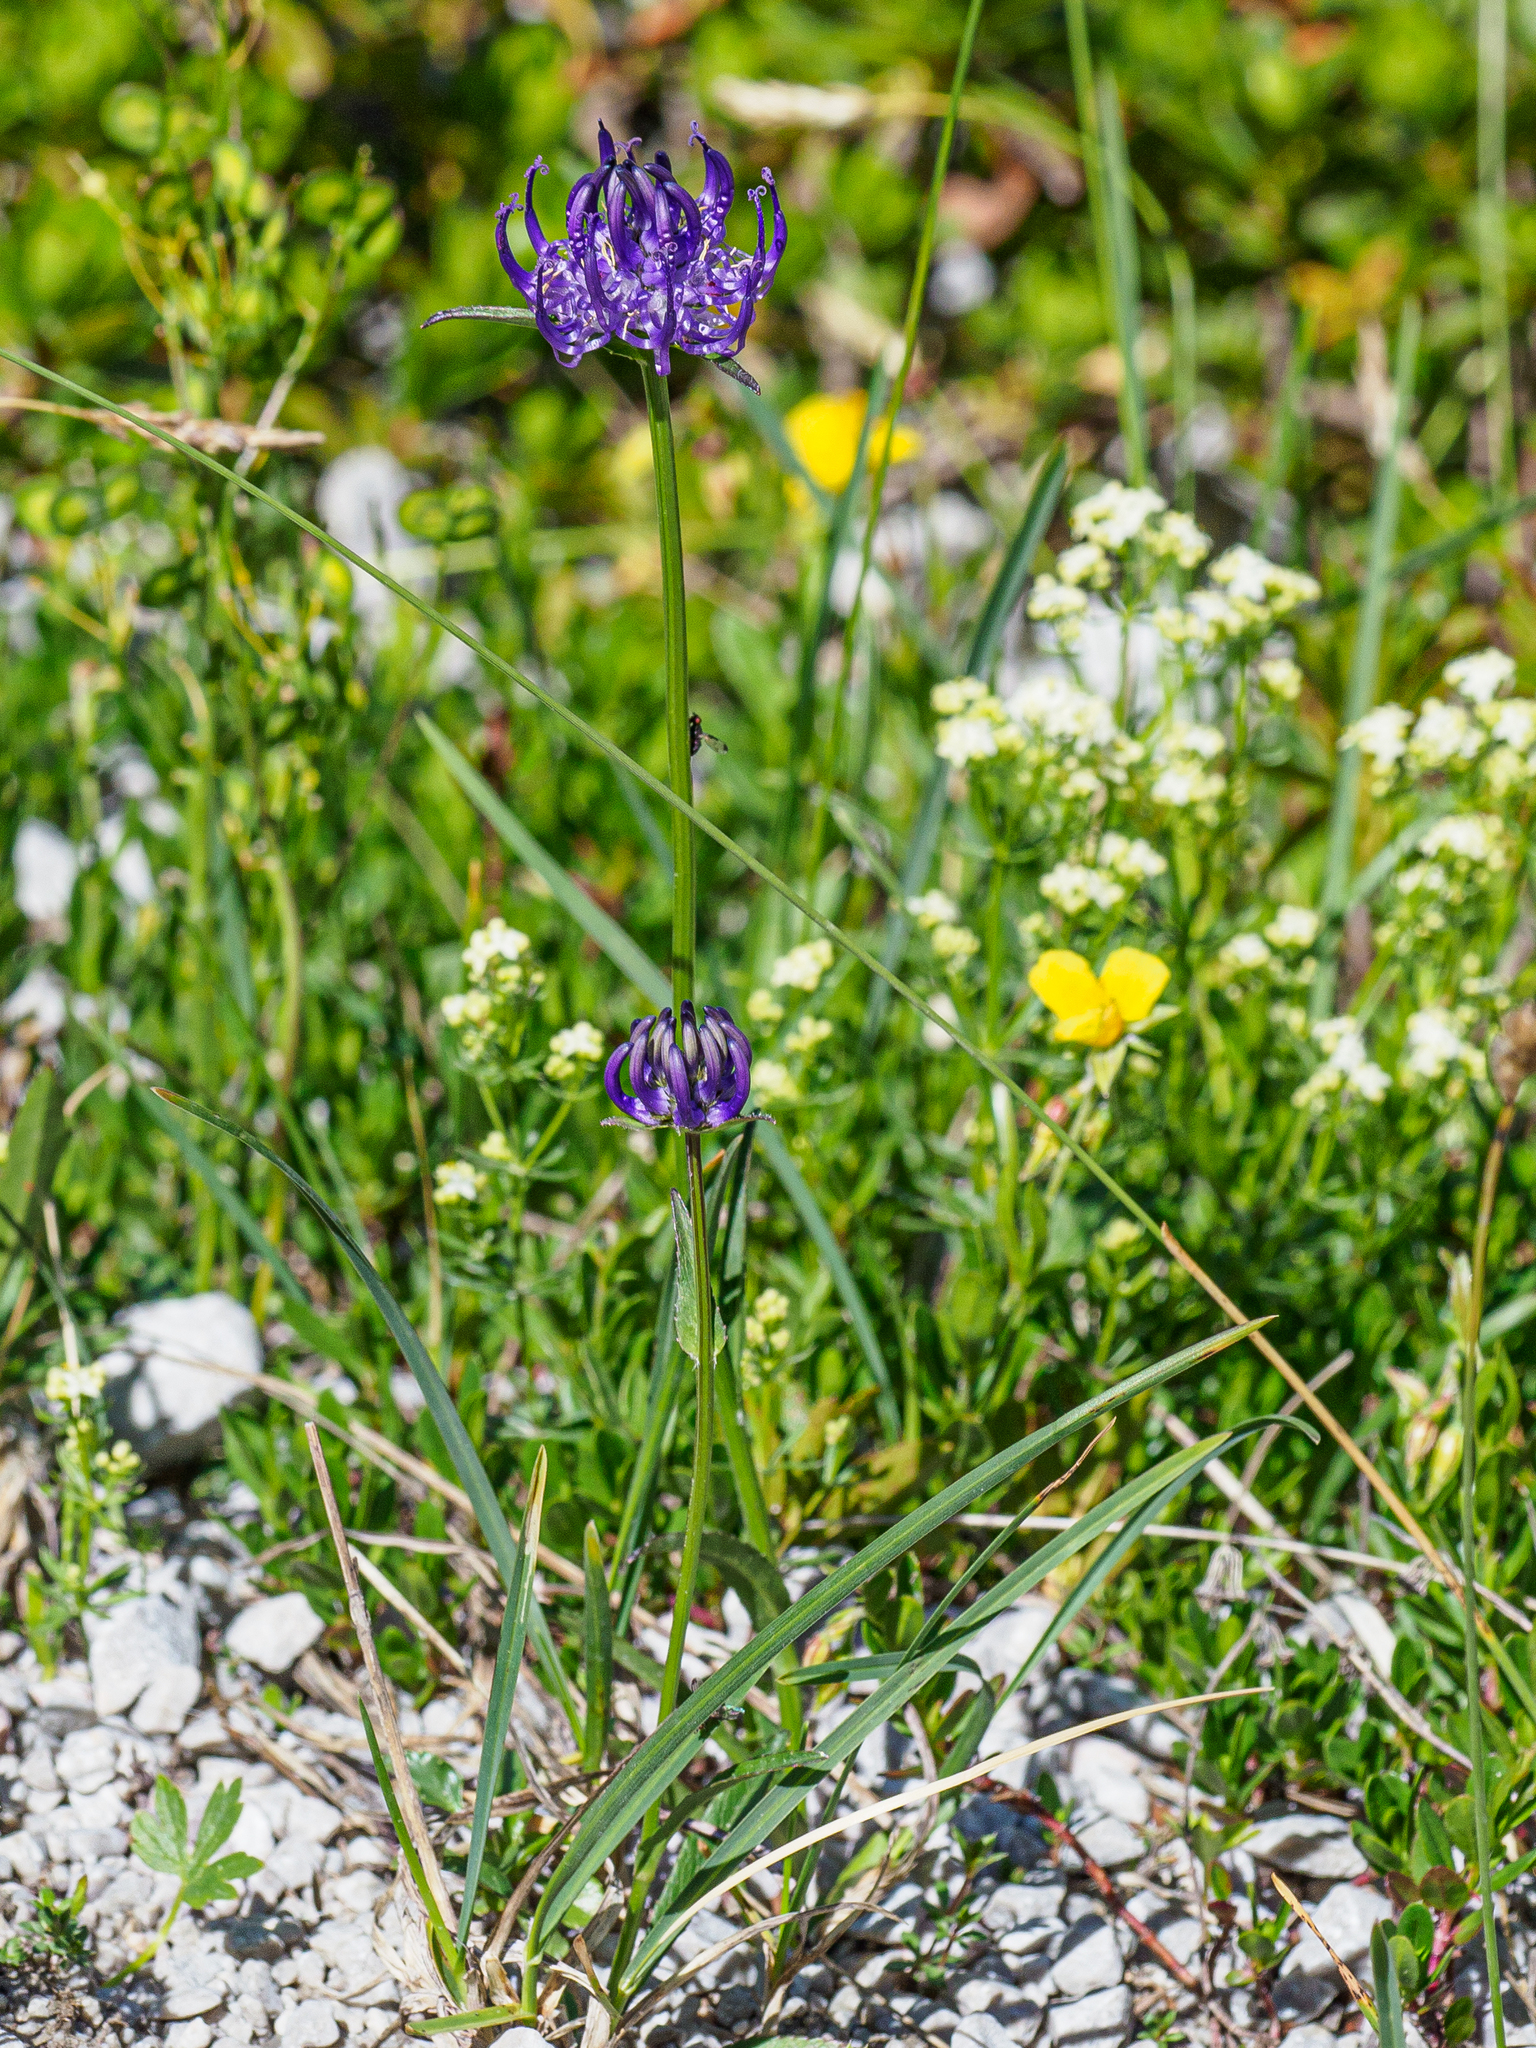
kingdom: Plantae
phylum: Tracheophyta
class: Magnoliopsida
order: Asterales
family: Campanulaceae
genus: Phyteuma
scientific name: Phyteuma orbiculare
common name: Round-headed rampion
